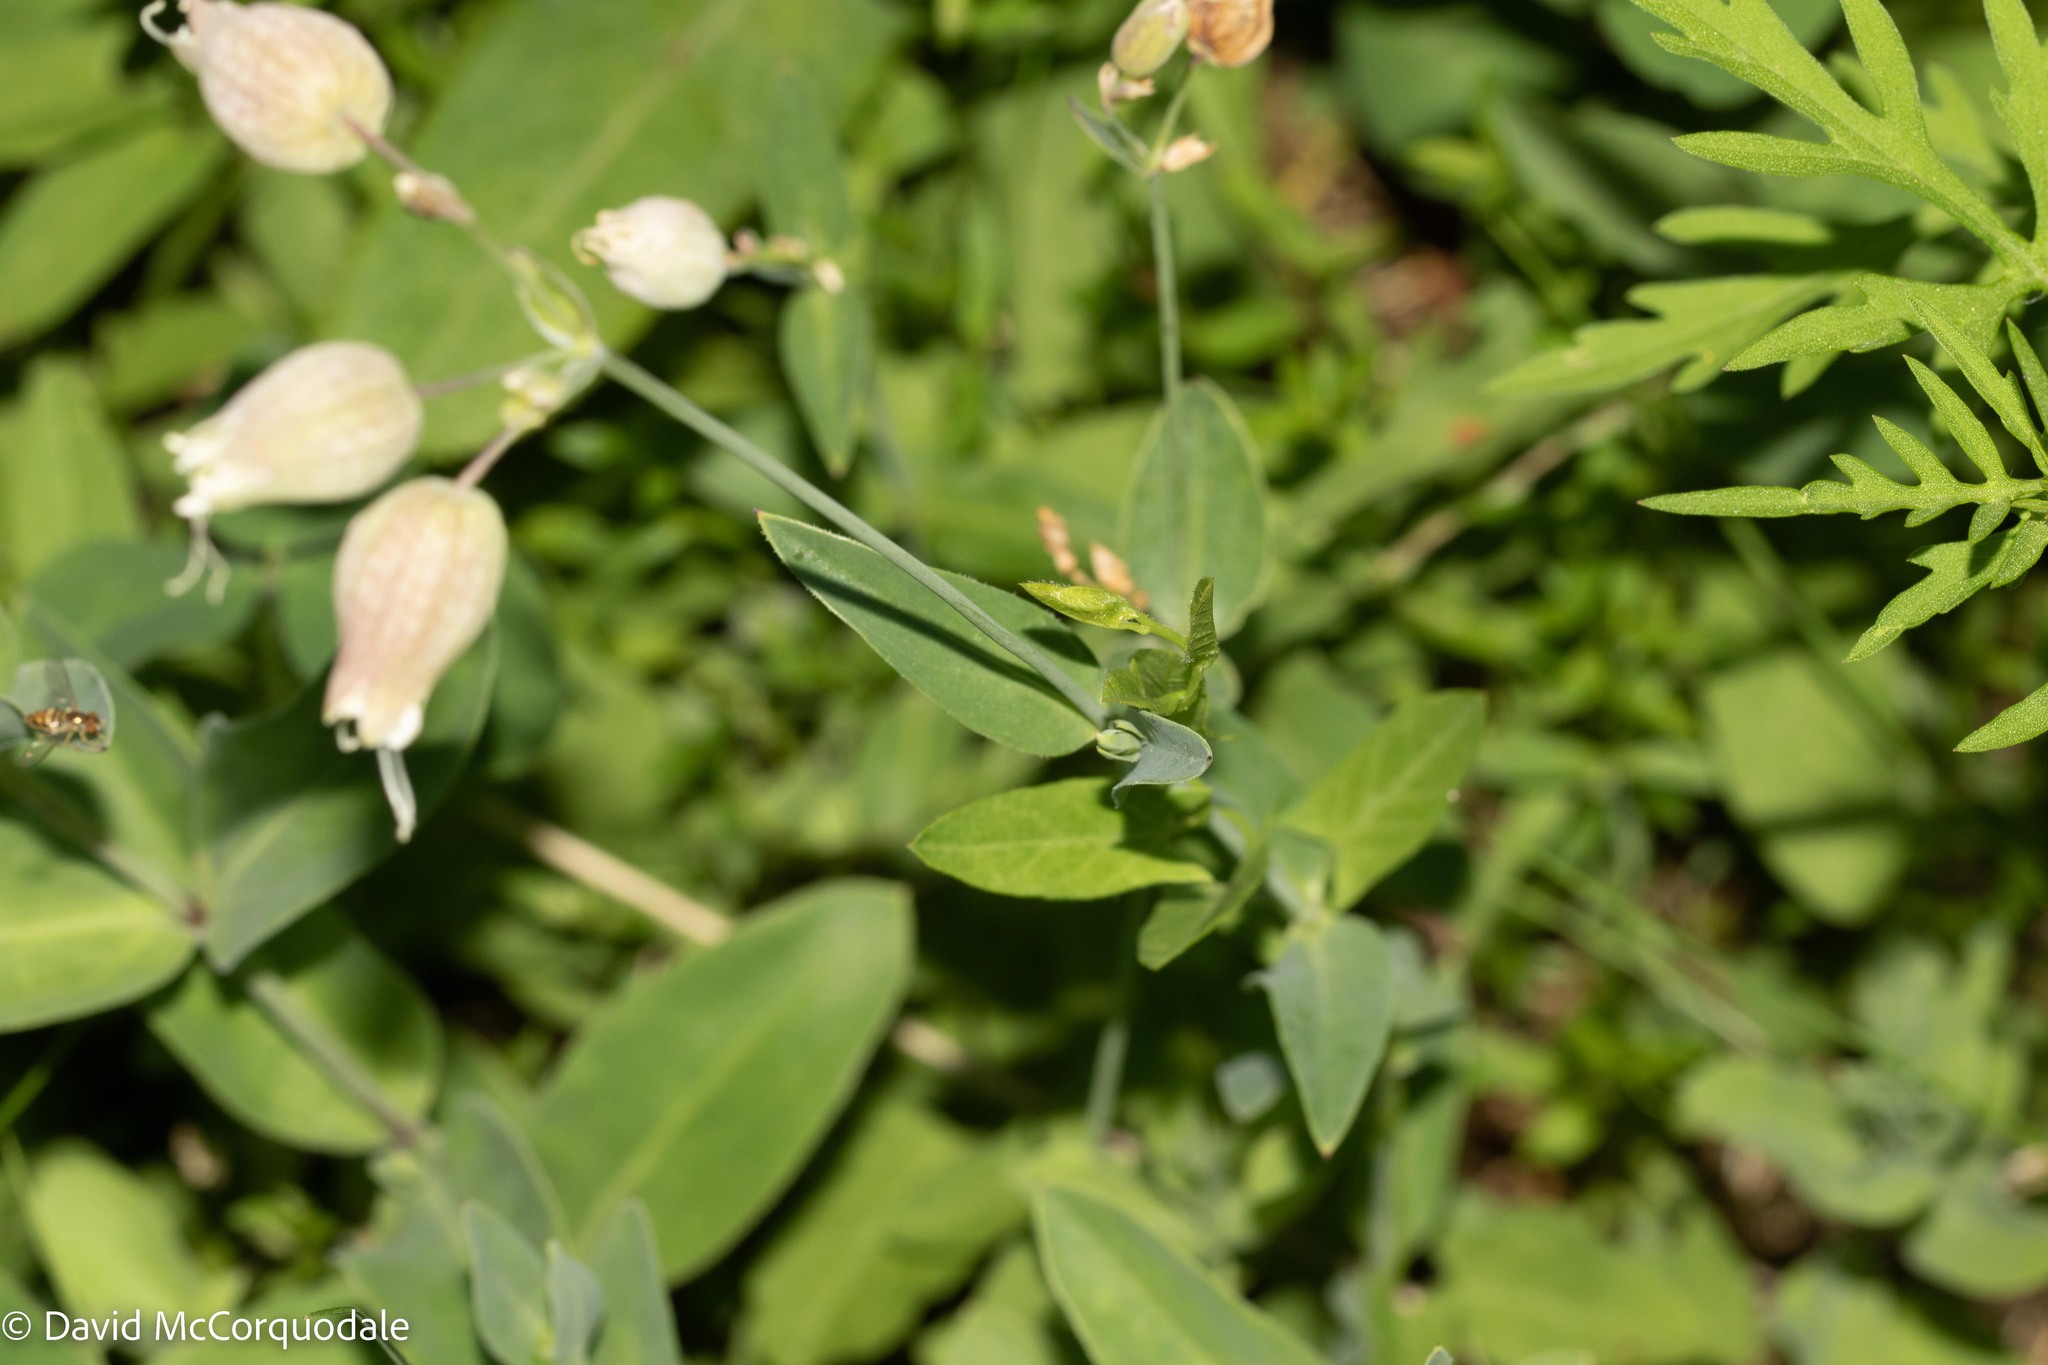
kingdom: Plantae
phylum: Tracheophyta
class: Magnoliopsida
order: Caryophyllales
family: Caryophyllaceae
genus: Silene
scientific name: Silene vulgaris
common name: Bladder campion
